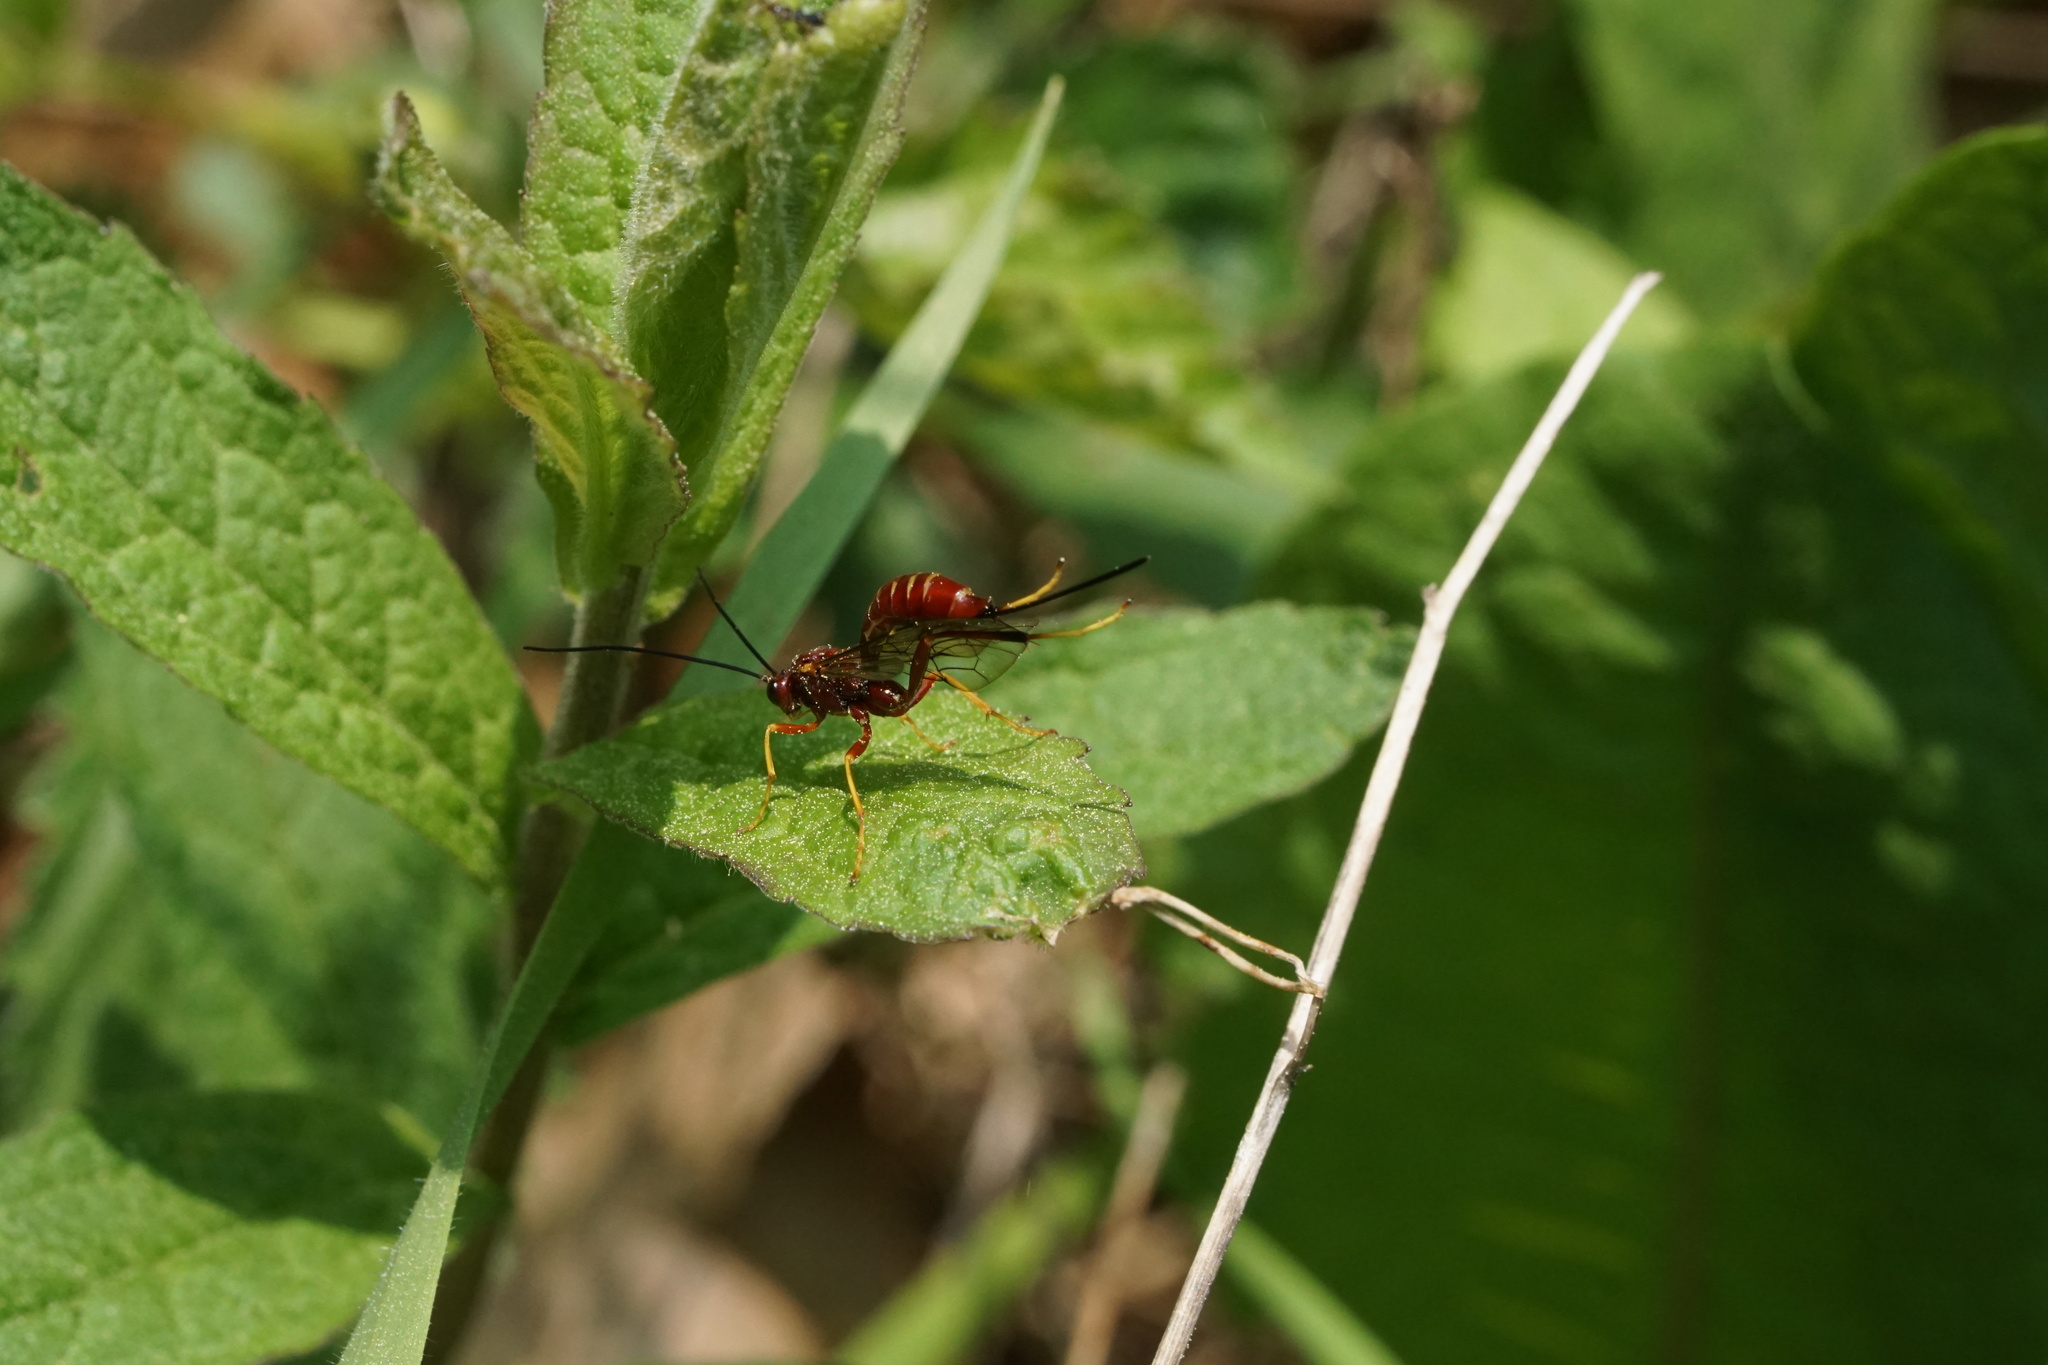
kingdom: Animalia
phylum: Arthropoda
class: Insecta
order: Hymenoptera
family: Ichneumonidae
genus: Coleocentrus
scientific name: Coleocentrus rufus
